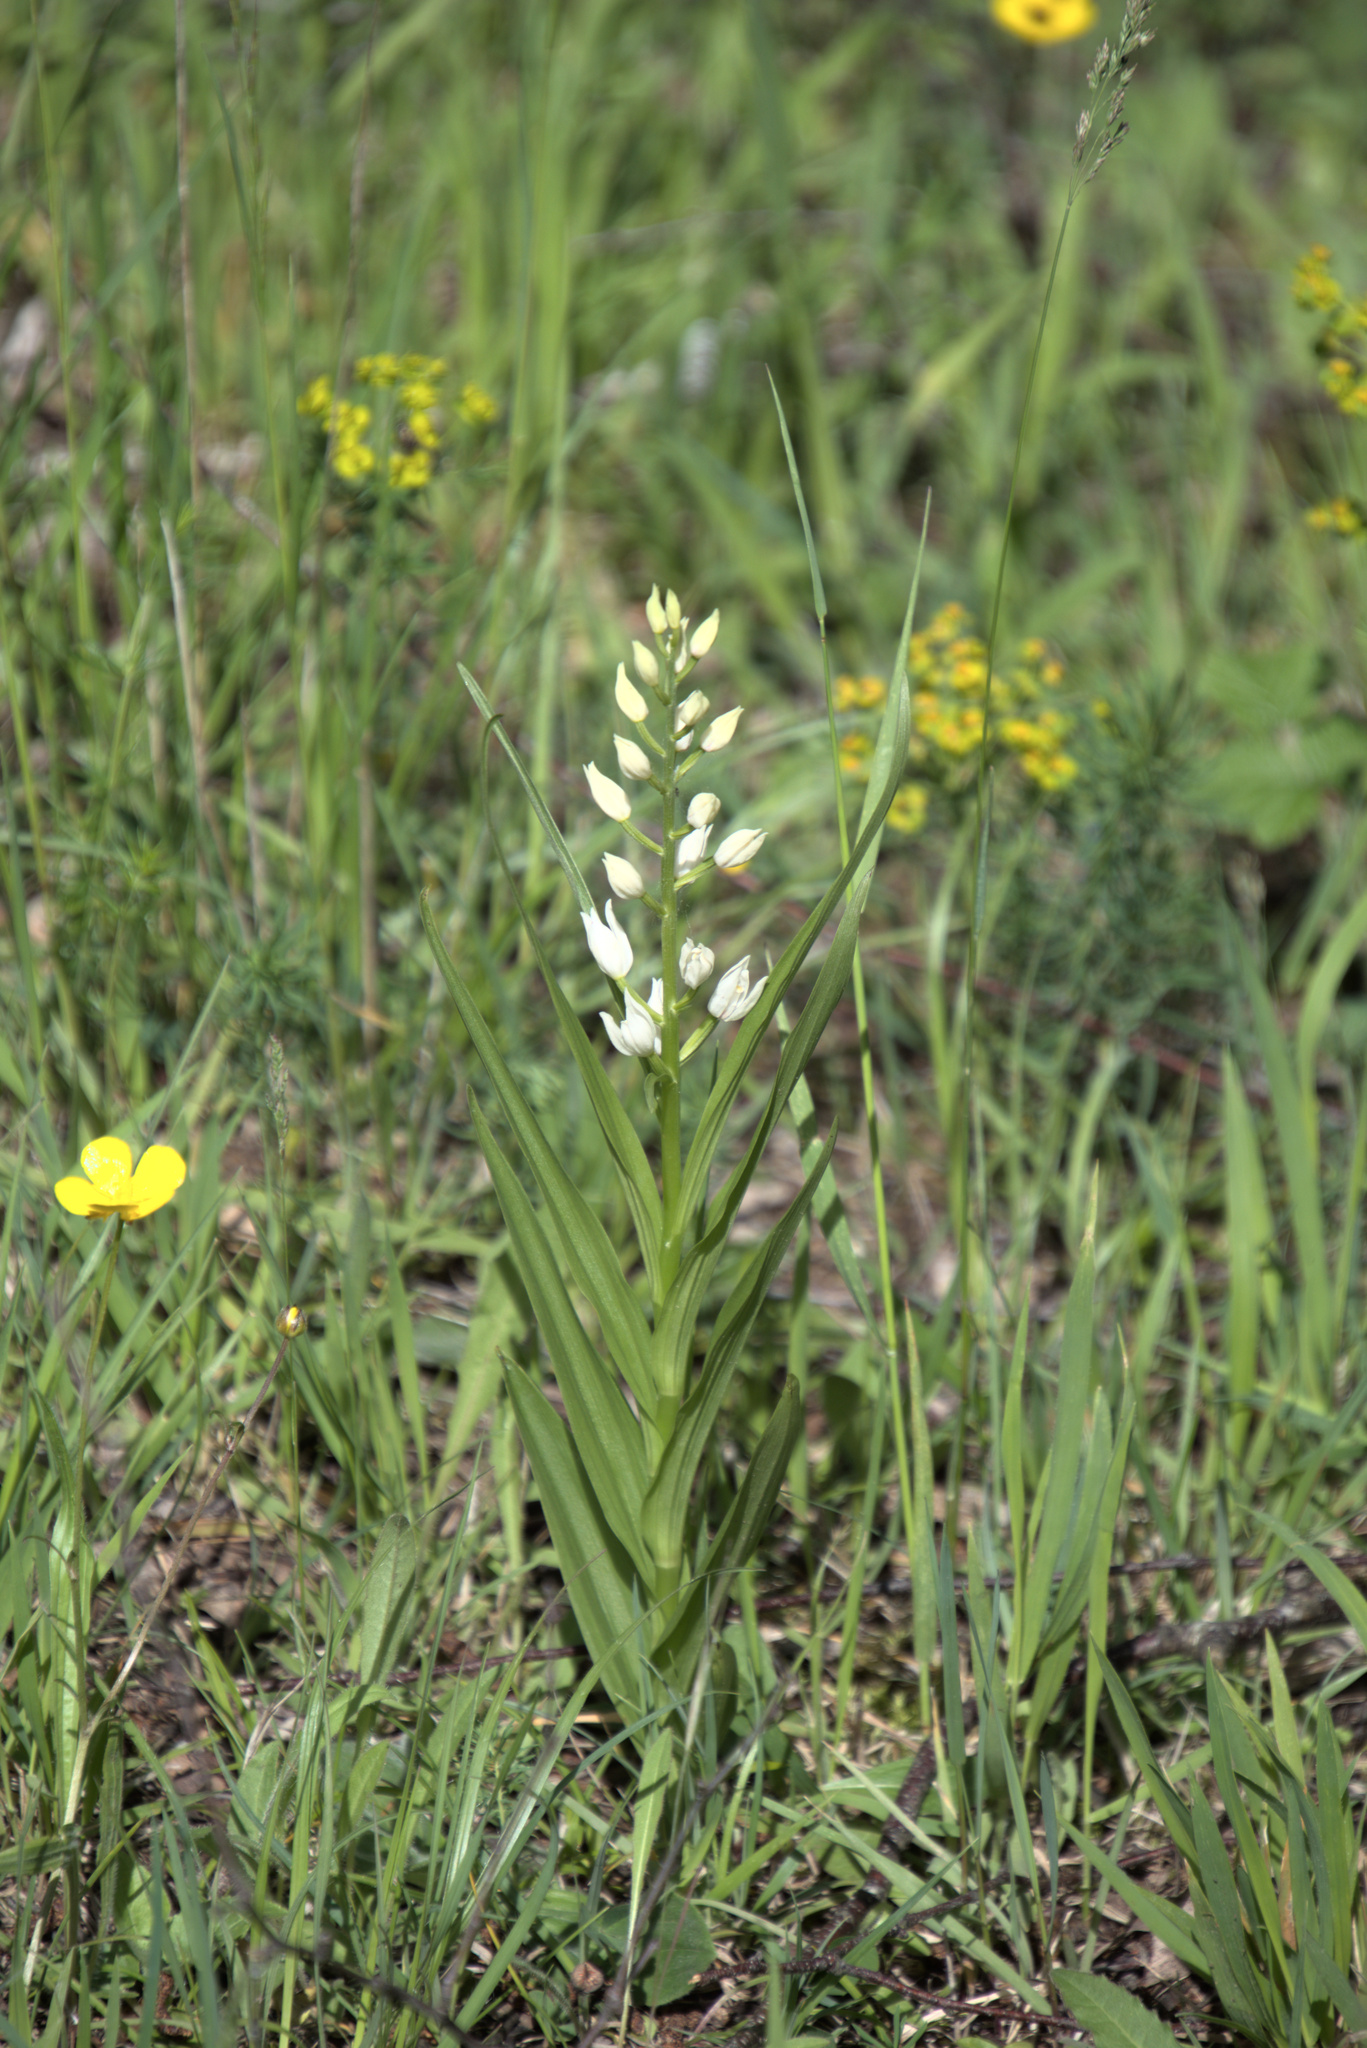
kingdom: Plantae
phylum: Tracheophyta
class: Liliopsida
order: Asparagales
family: Orchidaceae
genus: Cephalanthera
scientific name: Cephalanthera longifolia
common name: Narrow-leaved helleborine
